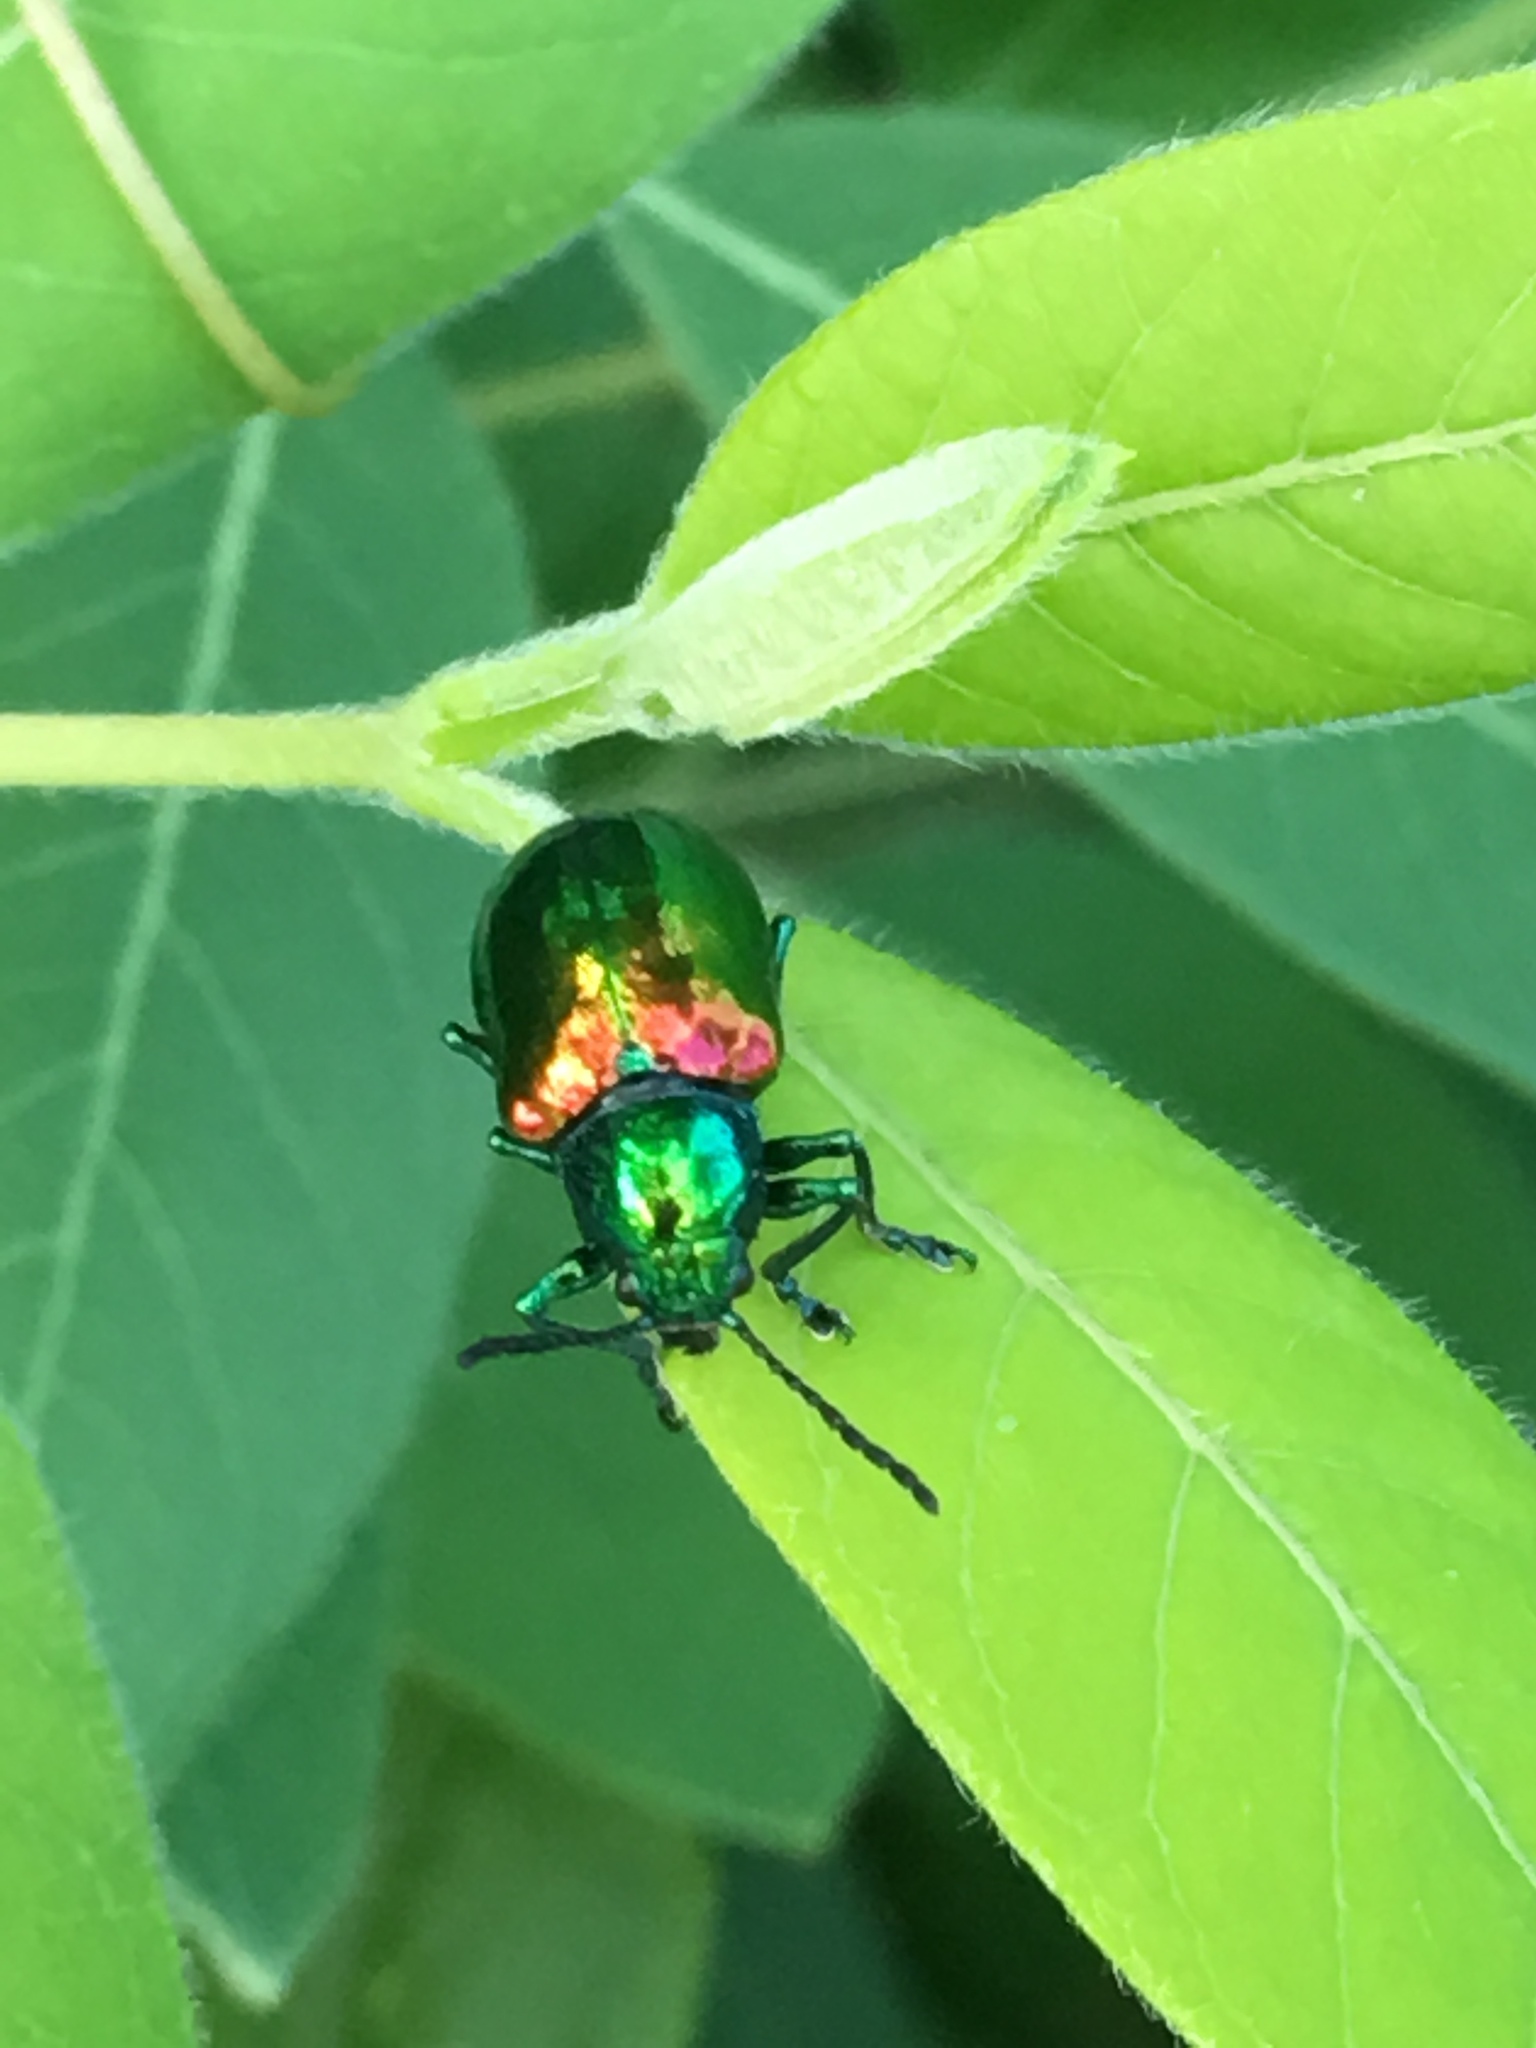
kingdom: Animalia
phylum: Arthropoda
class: Insecta
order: Coleoptera
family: Chrysomelidae
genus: Chrysochus
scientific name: Chrysochus auratus
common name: Dogbane leaf beetle
